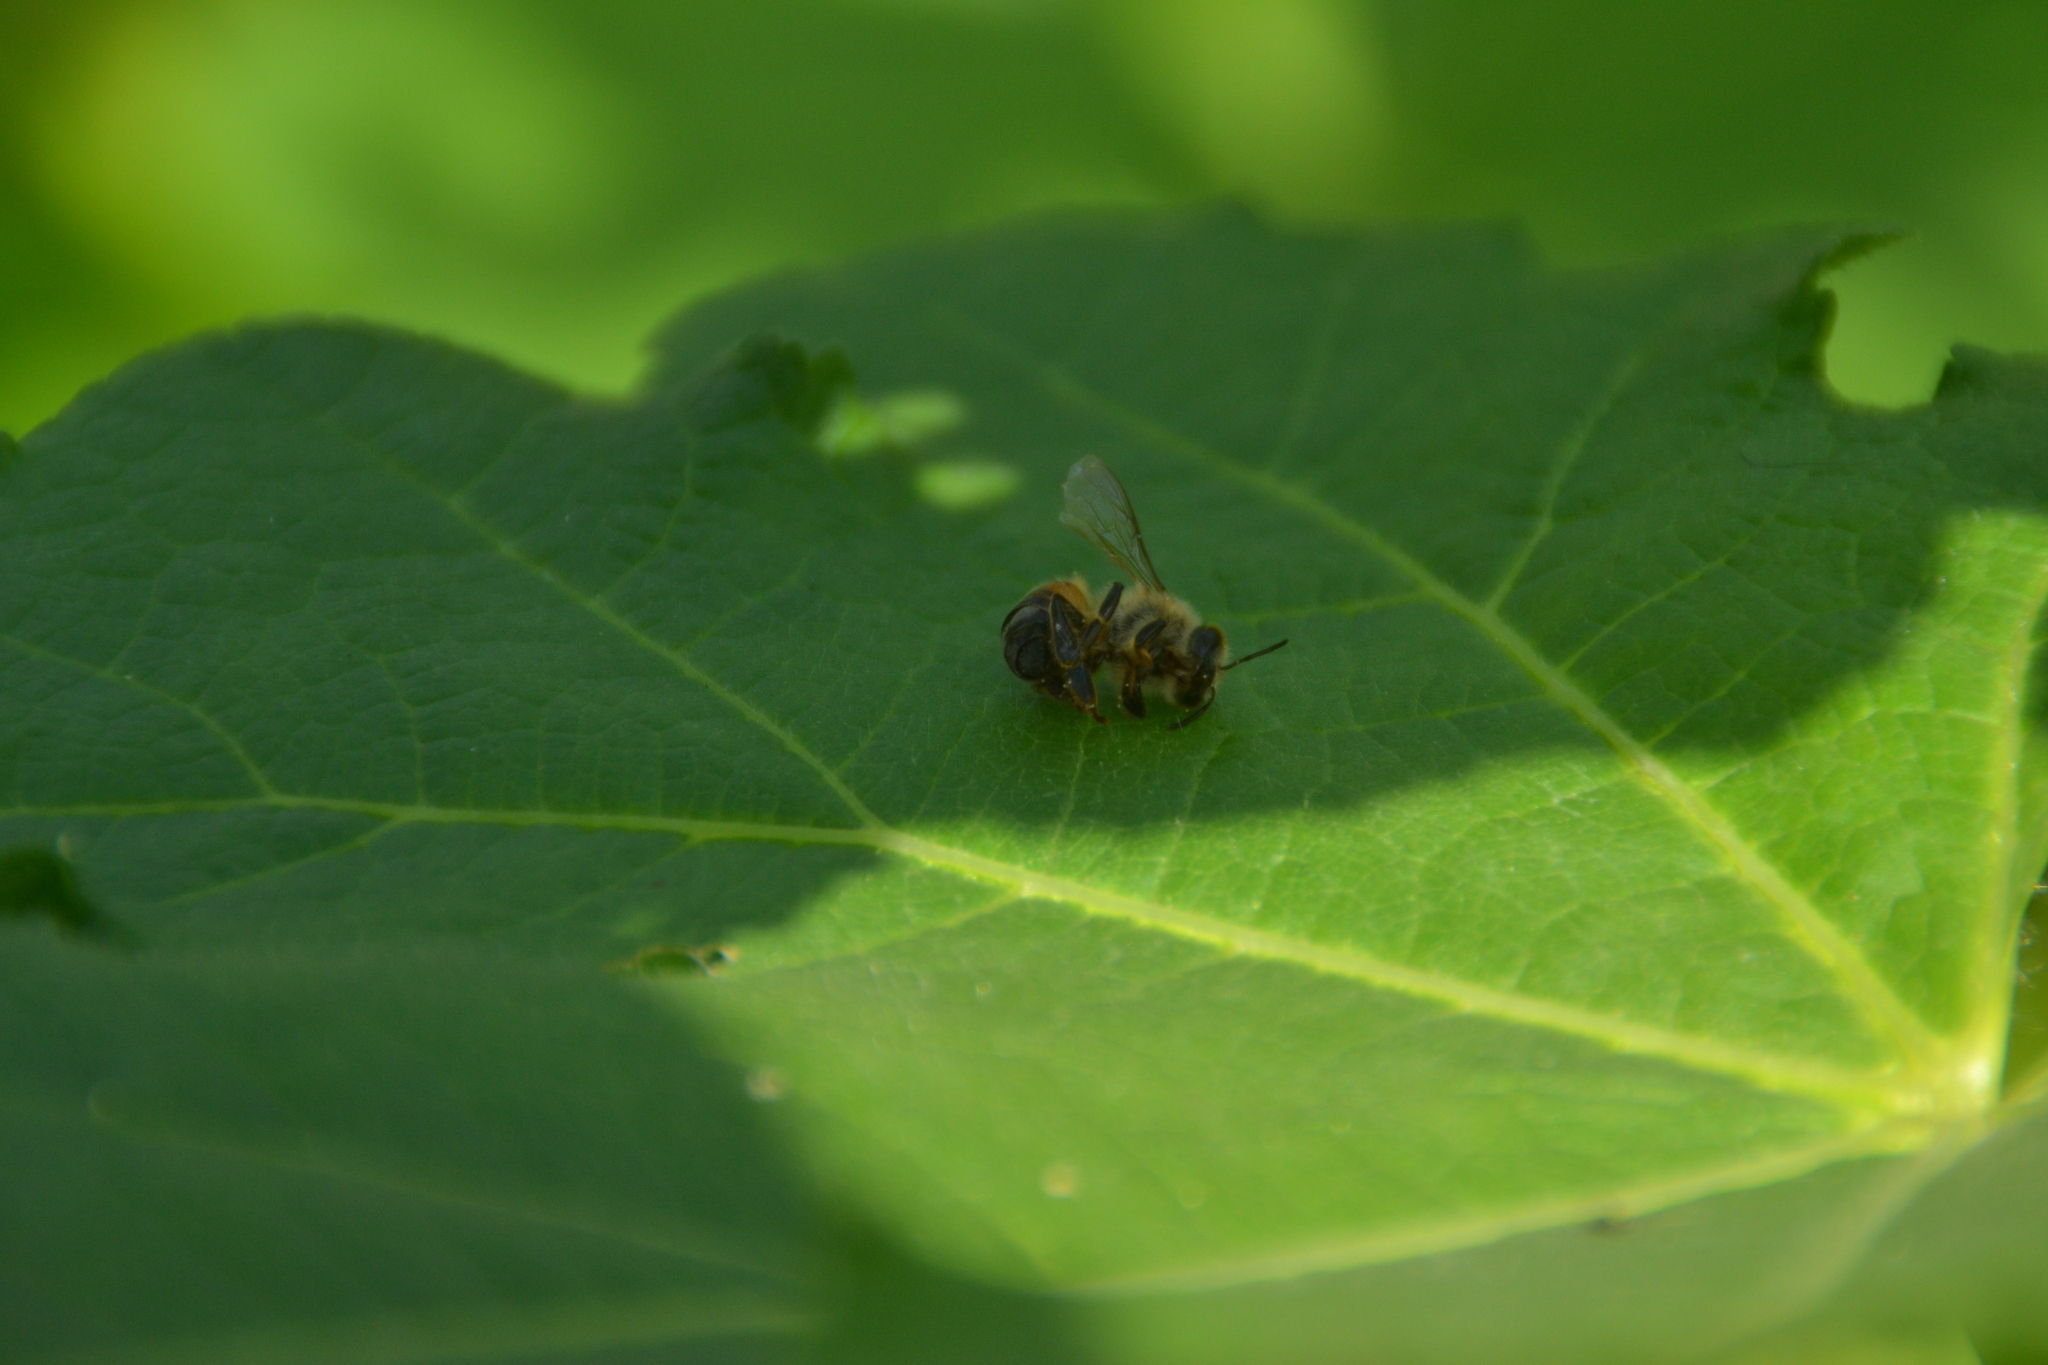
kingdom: Animalia
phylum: Arthropoda
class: Insecta
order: Hymenoptera
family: Apidae
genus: Apis
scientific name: Apis mellifera
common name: Honey bee
